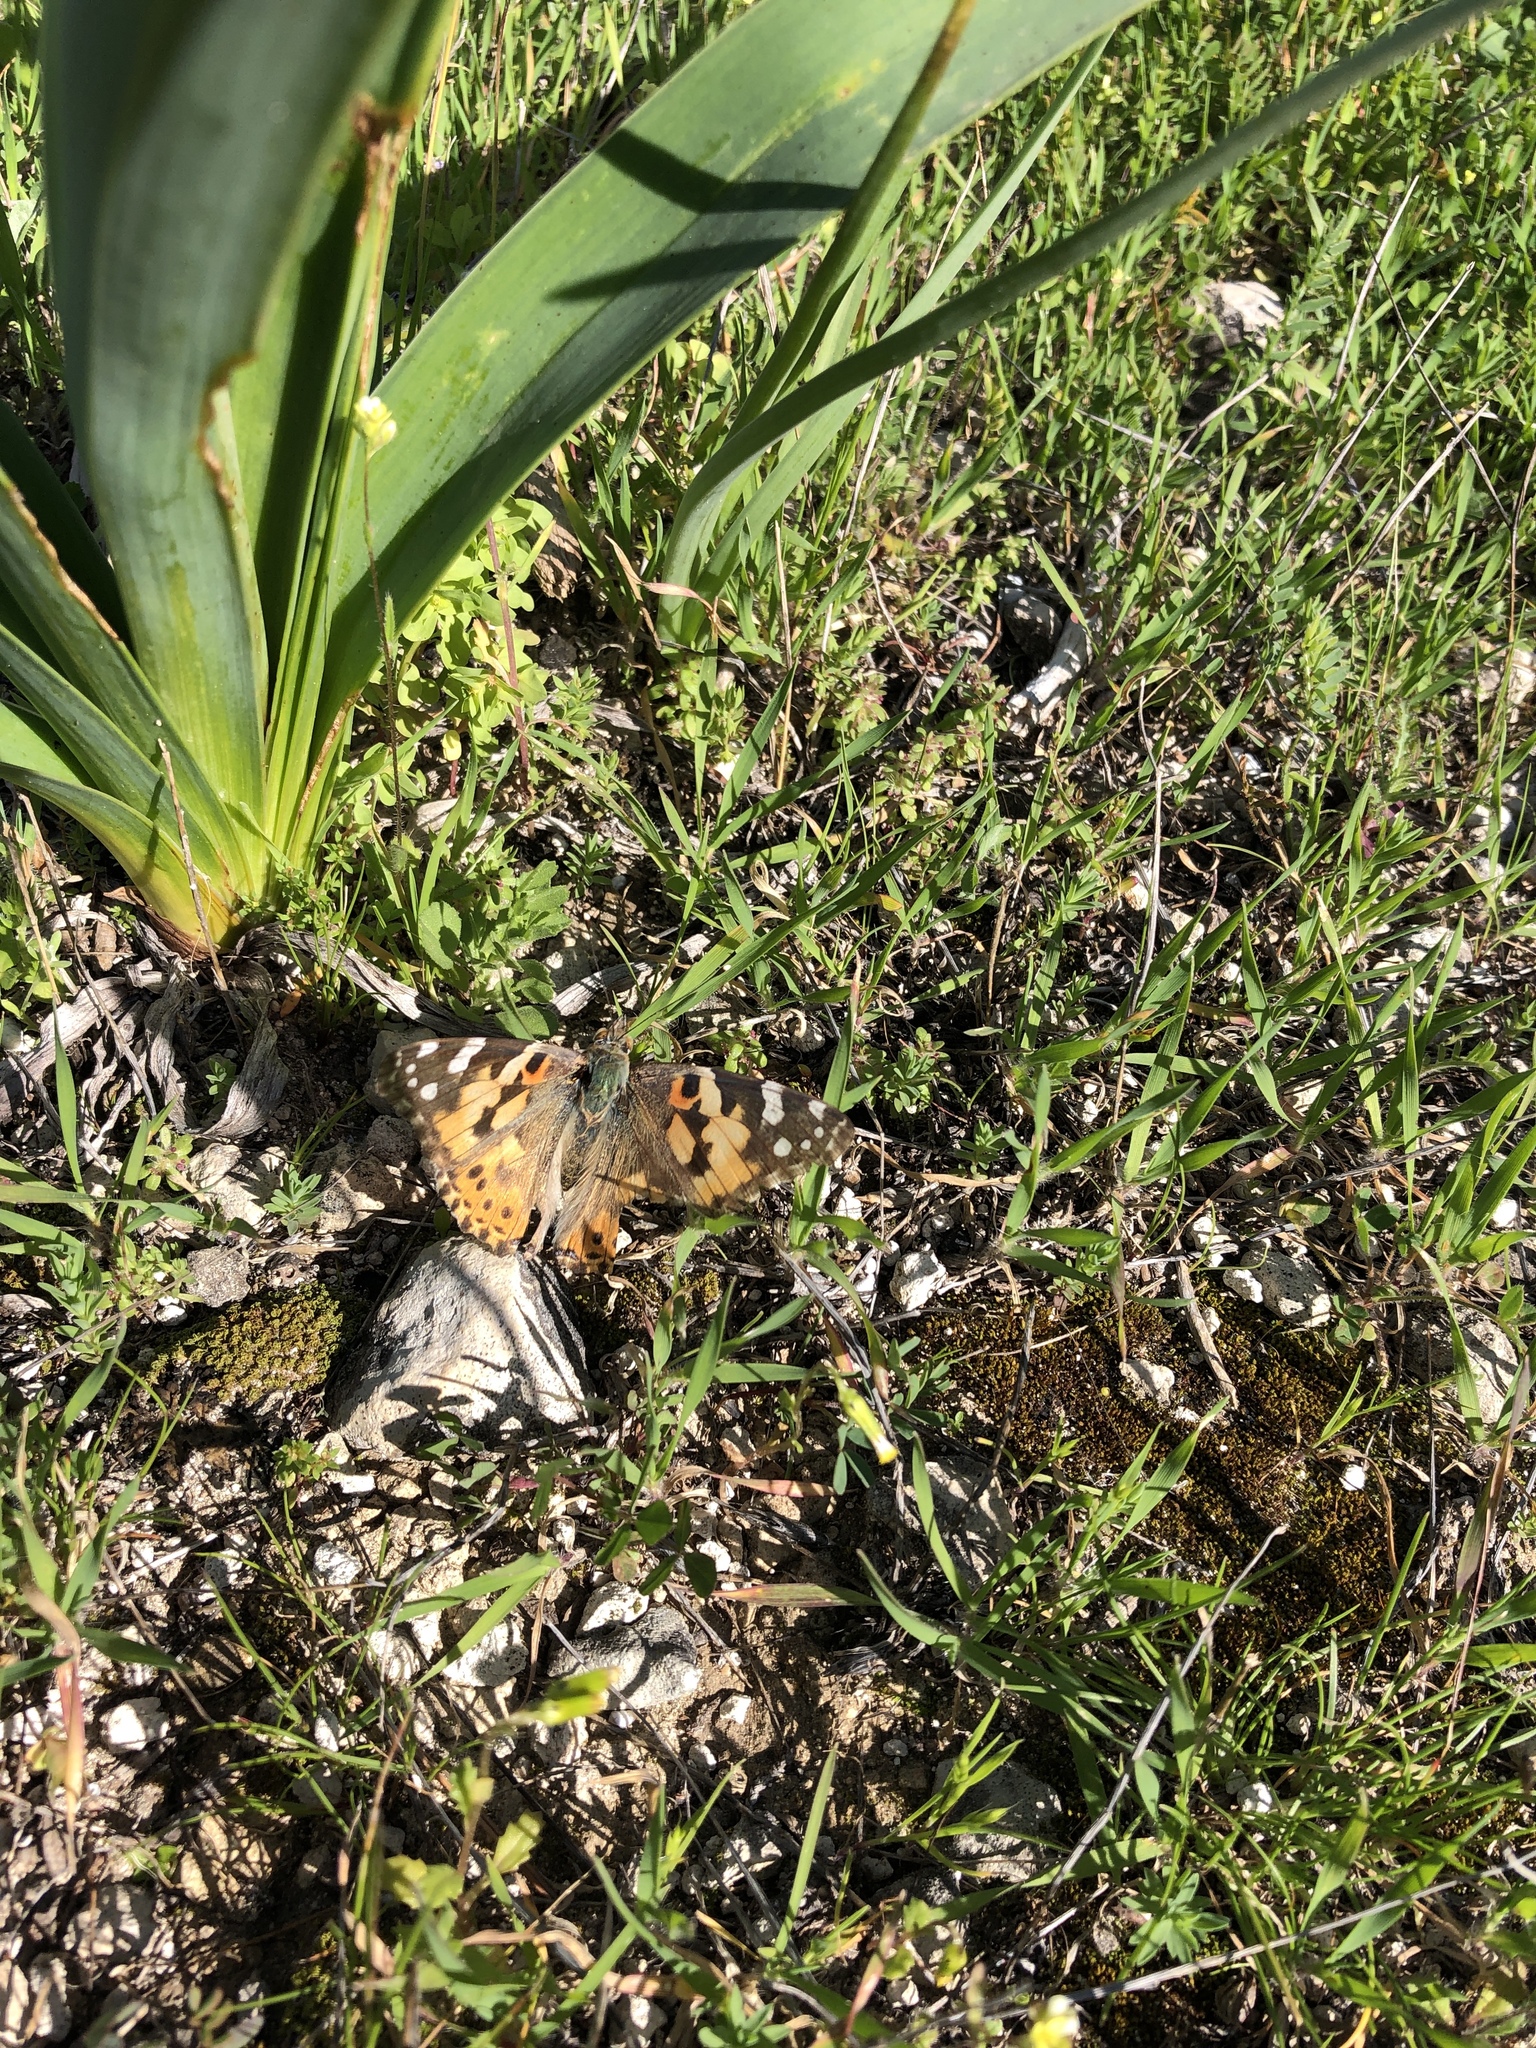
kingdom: Animalia
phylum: Arthropoda
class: Insecta
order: Lepidoptera
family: Nymphalidae
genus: Vanessa
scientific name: Vanessa cardui
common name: Painted lady
